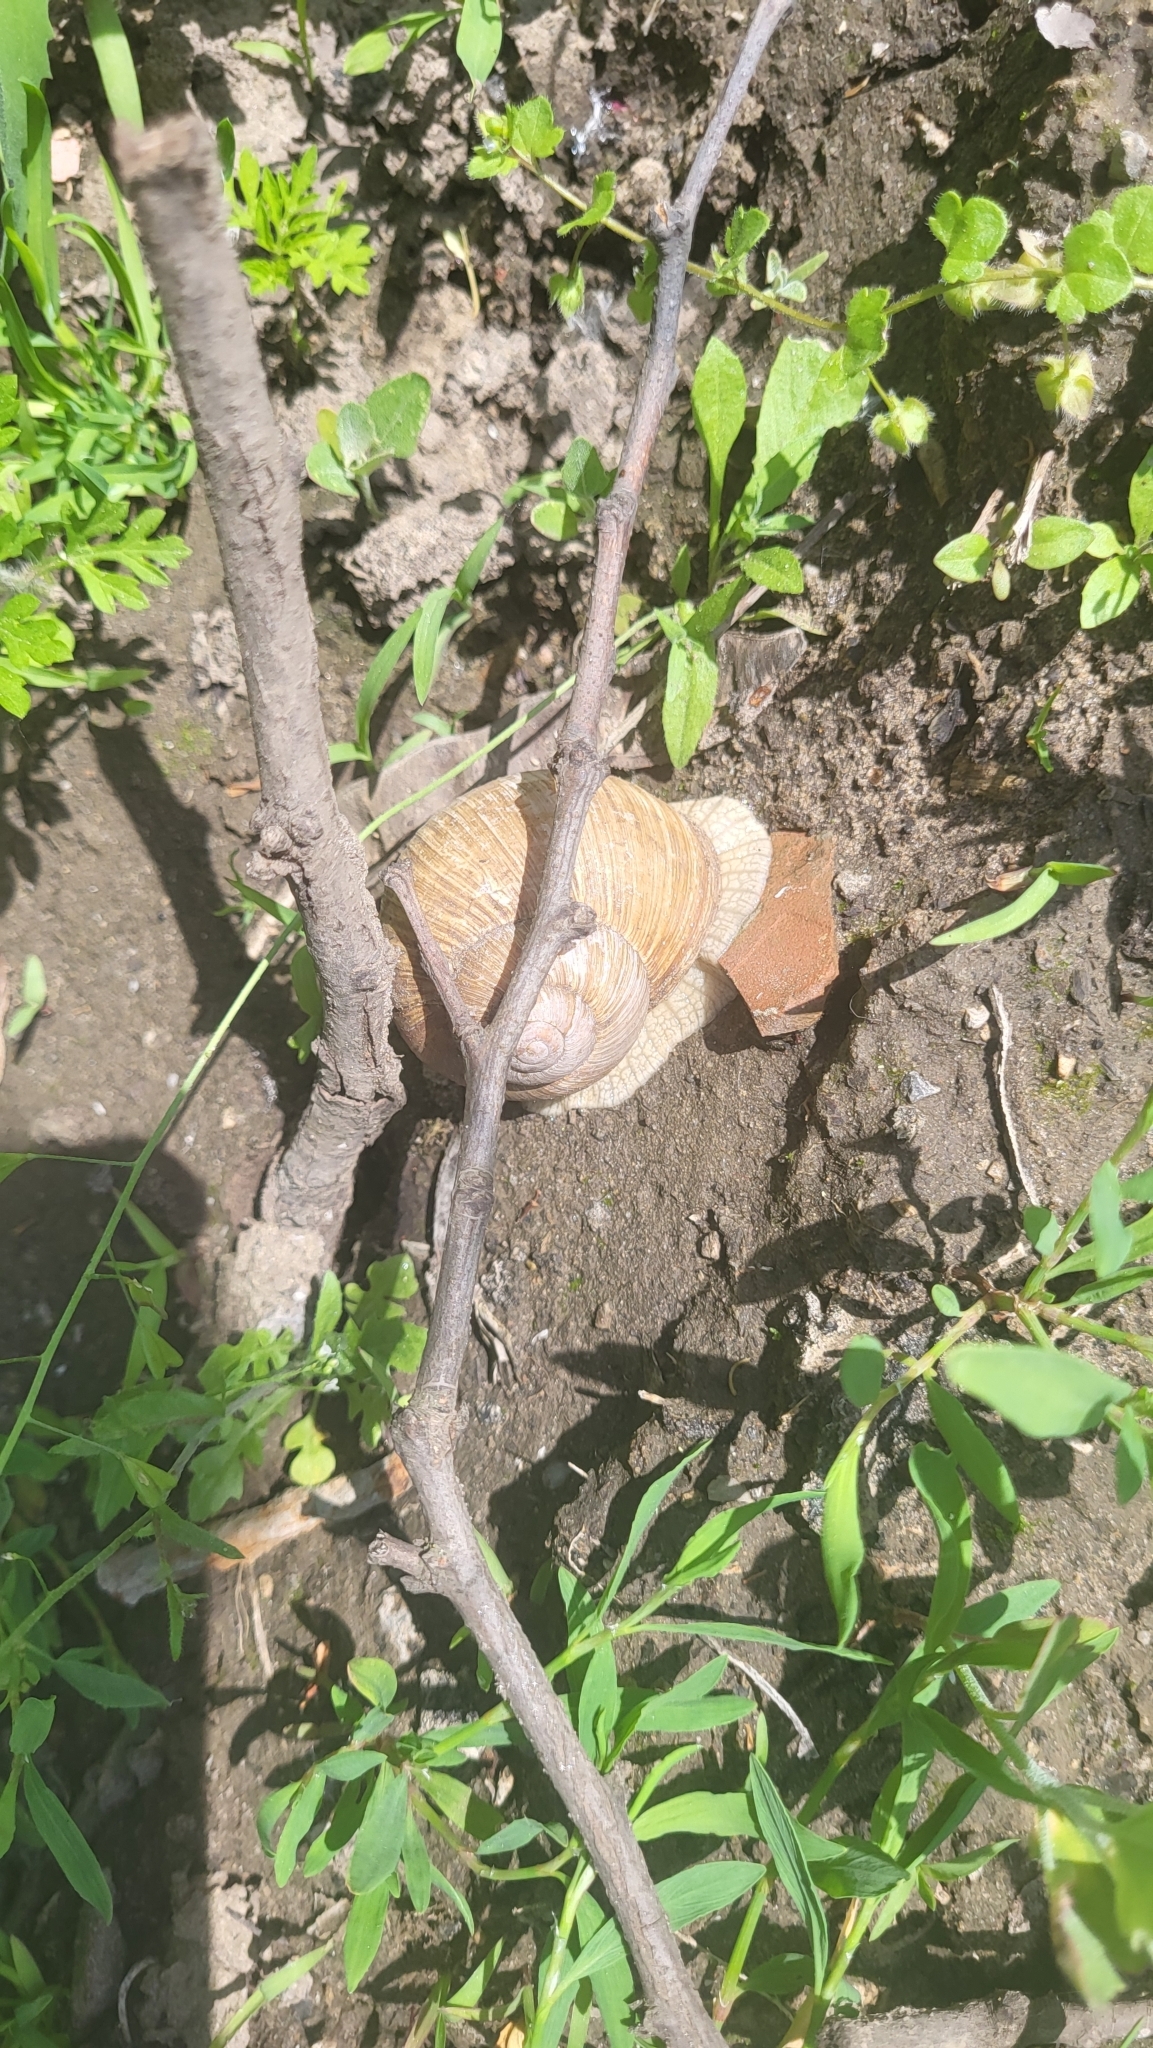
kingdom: Animalia
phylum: Mollusca
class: Gastropoda
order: Stylommatophora
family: Helicidae
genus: Helix
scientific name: Helix pomatia
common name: Roman snail
